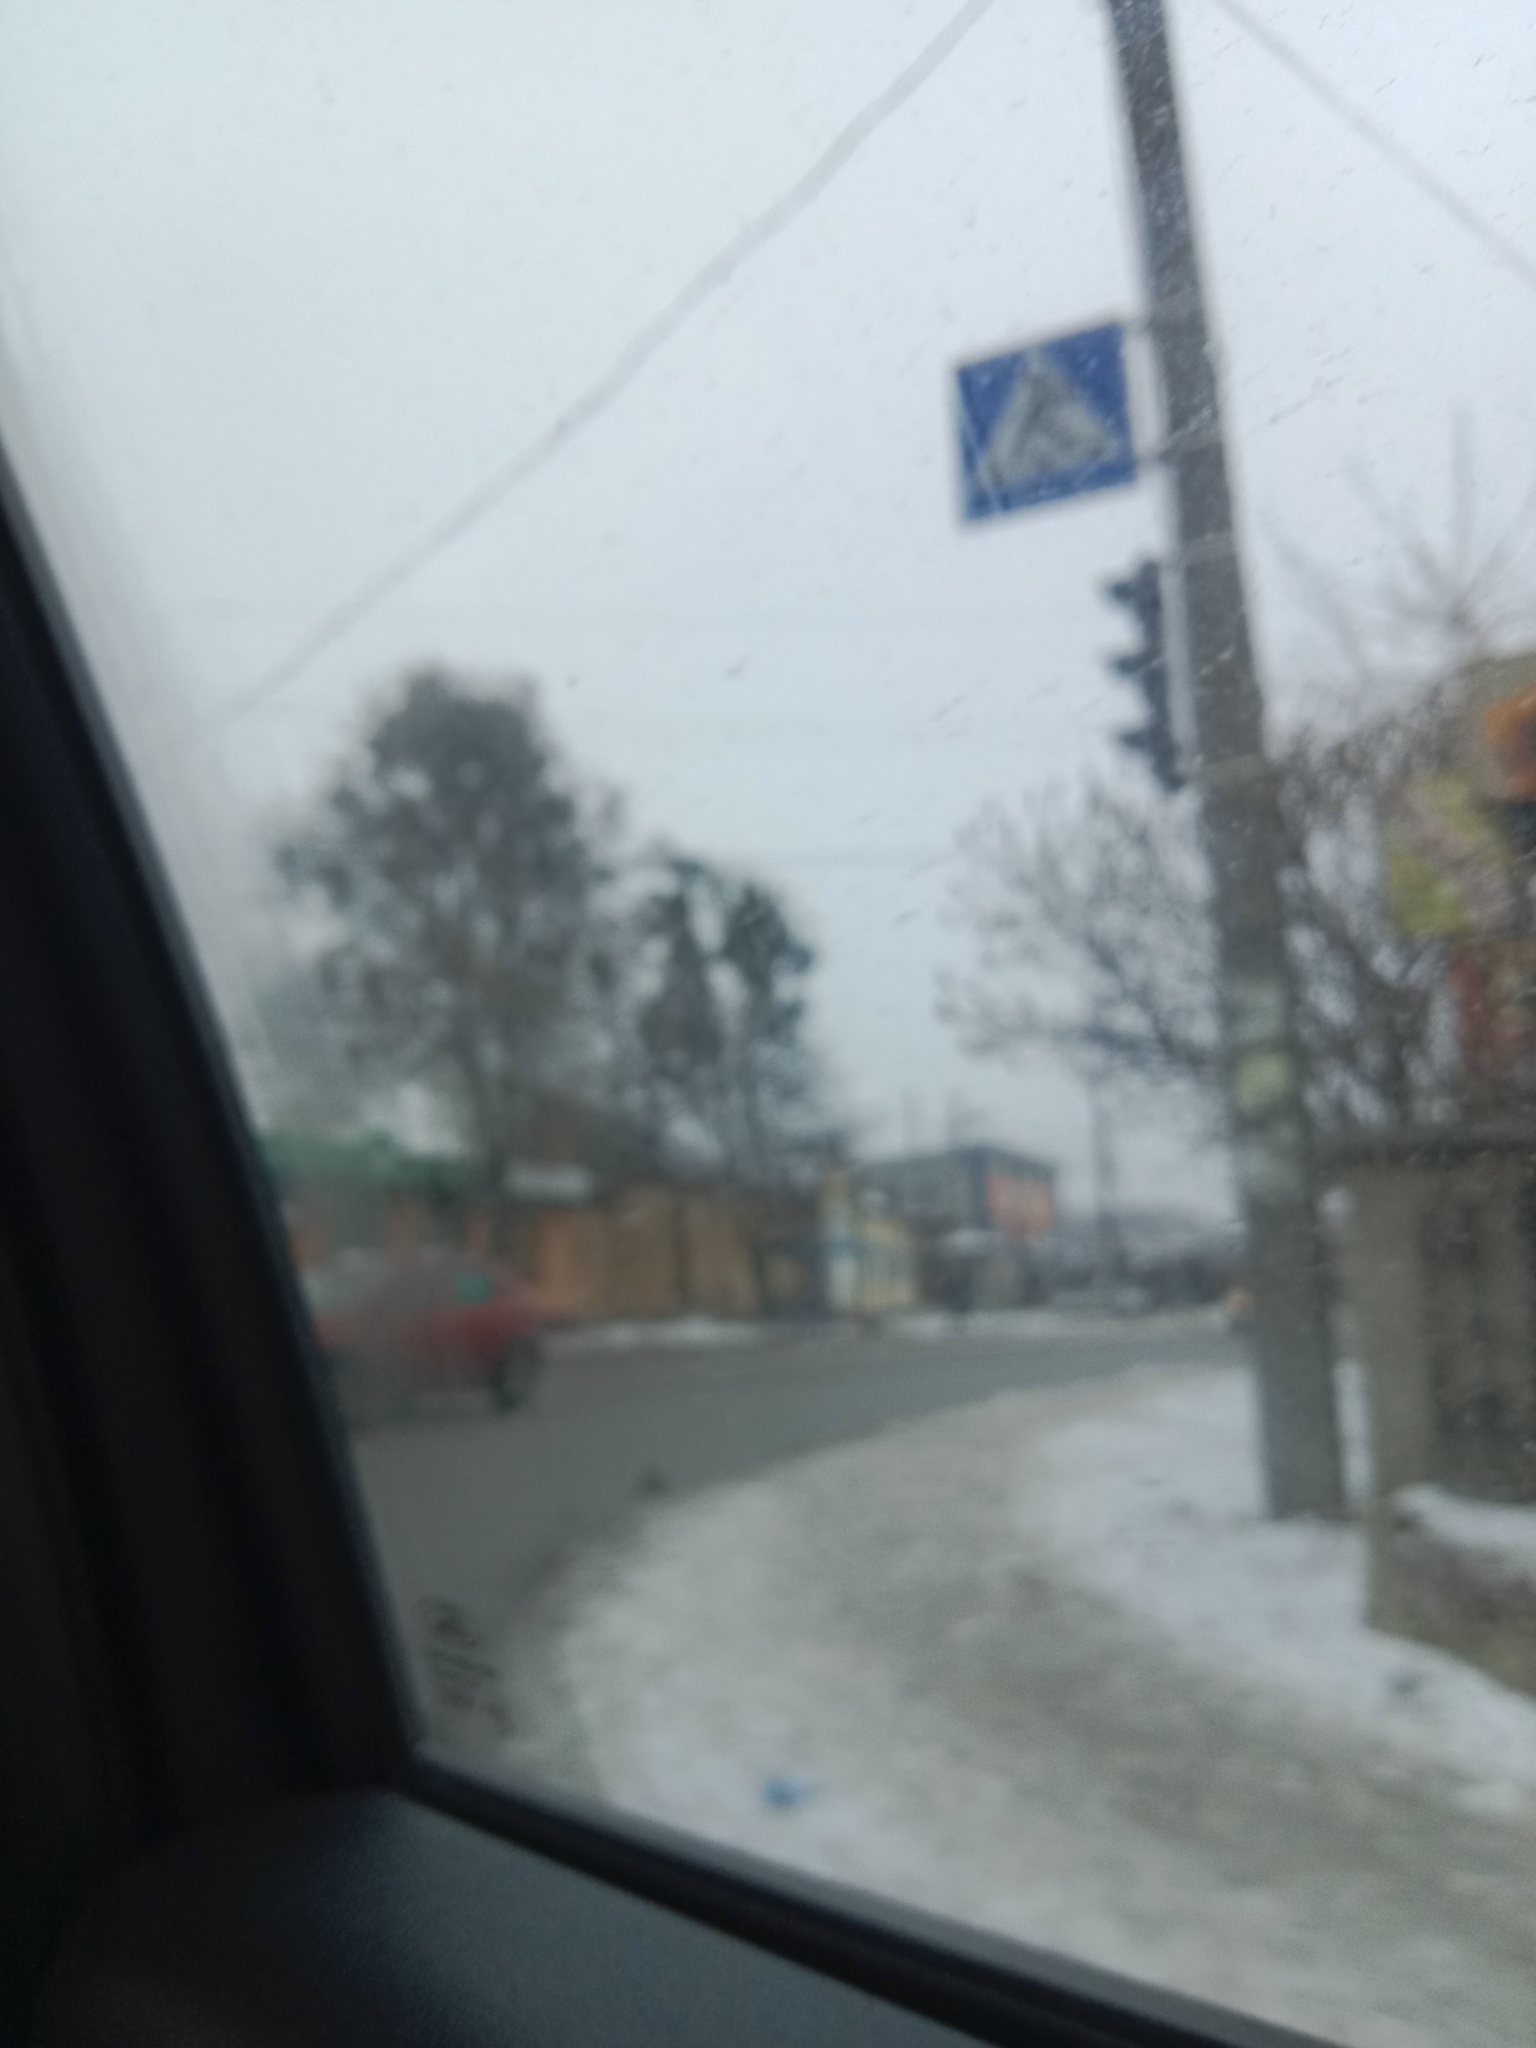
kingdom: Plantae
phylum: Tracheophyta
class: Magnoliopsida
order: Santalales
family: Viscaceae
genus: Viscum
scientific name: Viscum album
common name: Mistletoe
